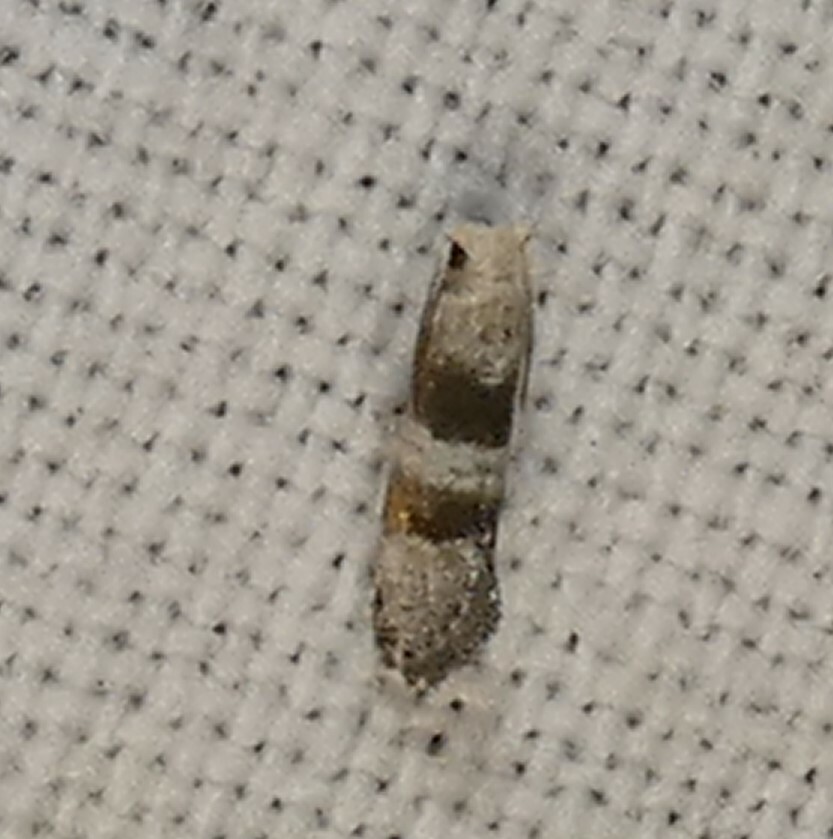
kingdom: Animalia
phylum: Arthropoda
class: Insecta
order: Lepidoptera
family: Tortricidae
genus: Corticivora
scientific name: Corticivora parva
